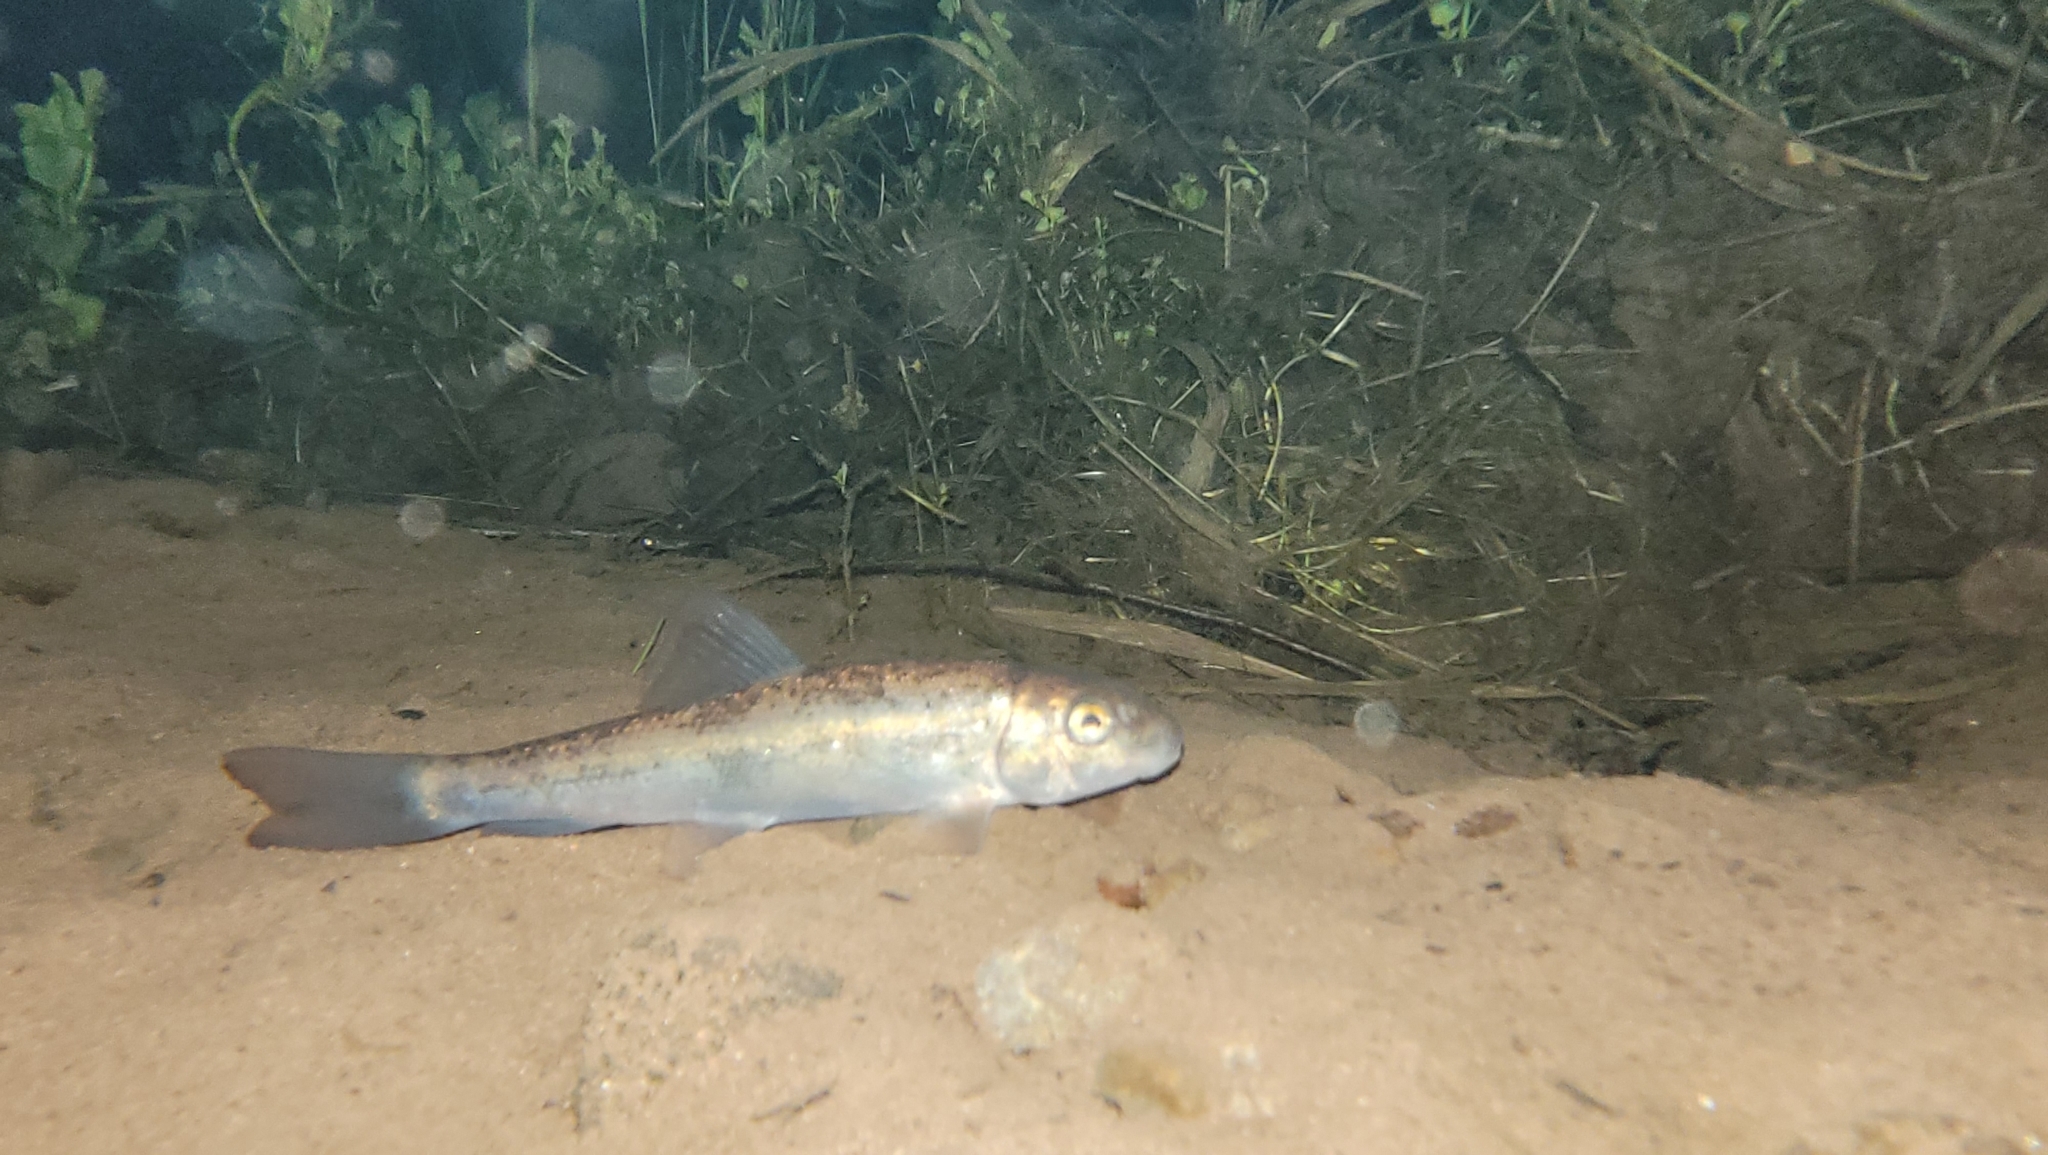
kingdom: Animalia
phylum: Chordata
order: Cypriniformes
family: Catostomidae
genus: Catostomus
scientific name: Catostomus commersonii
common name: White sucker
